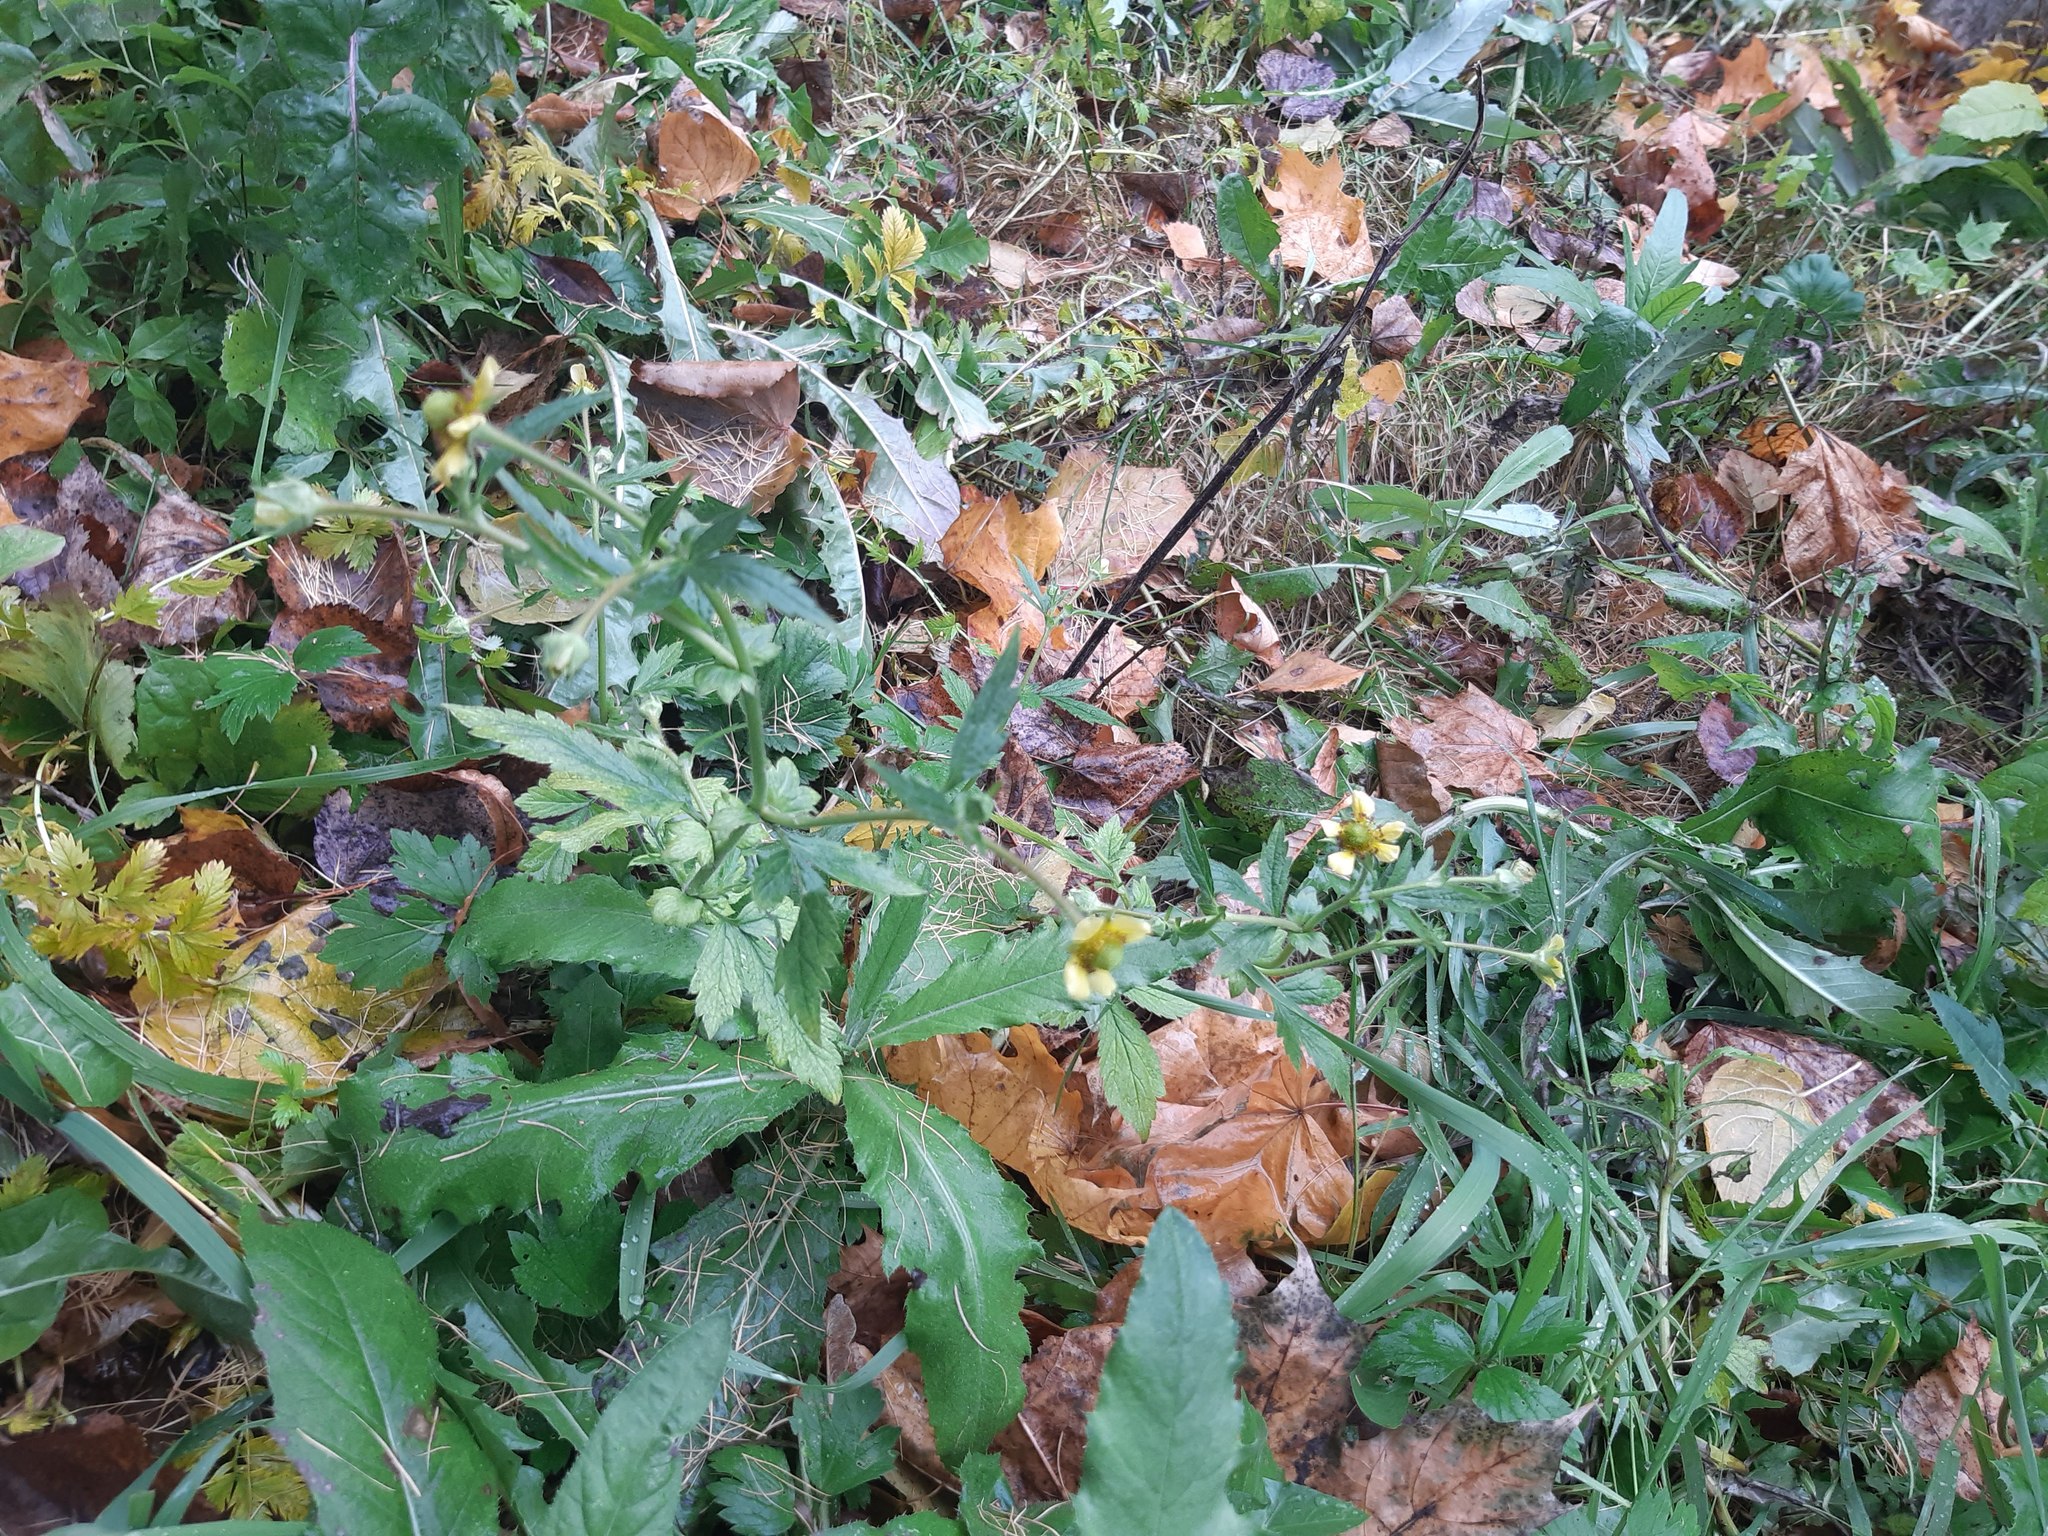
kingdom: Plantae
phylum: Tracheophyta
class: Magnoliopsida
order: Rosales
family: Rosaceae
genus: Geum
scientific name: Geum aleppicum
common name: Yellow avens
